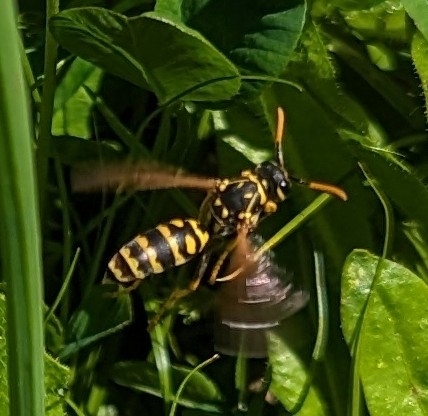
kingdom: Animalia
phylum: Arthropoda
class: Insecta
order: Hymenoptera
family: Eumenidae
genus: Polistes
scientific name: Polistes dominula
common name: Paper wasp
